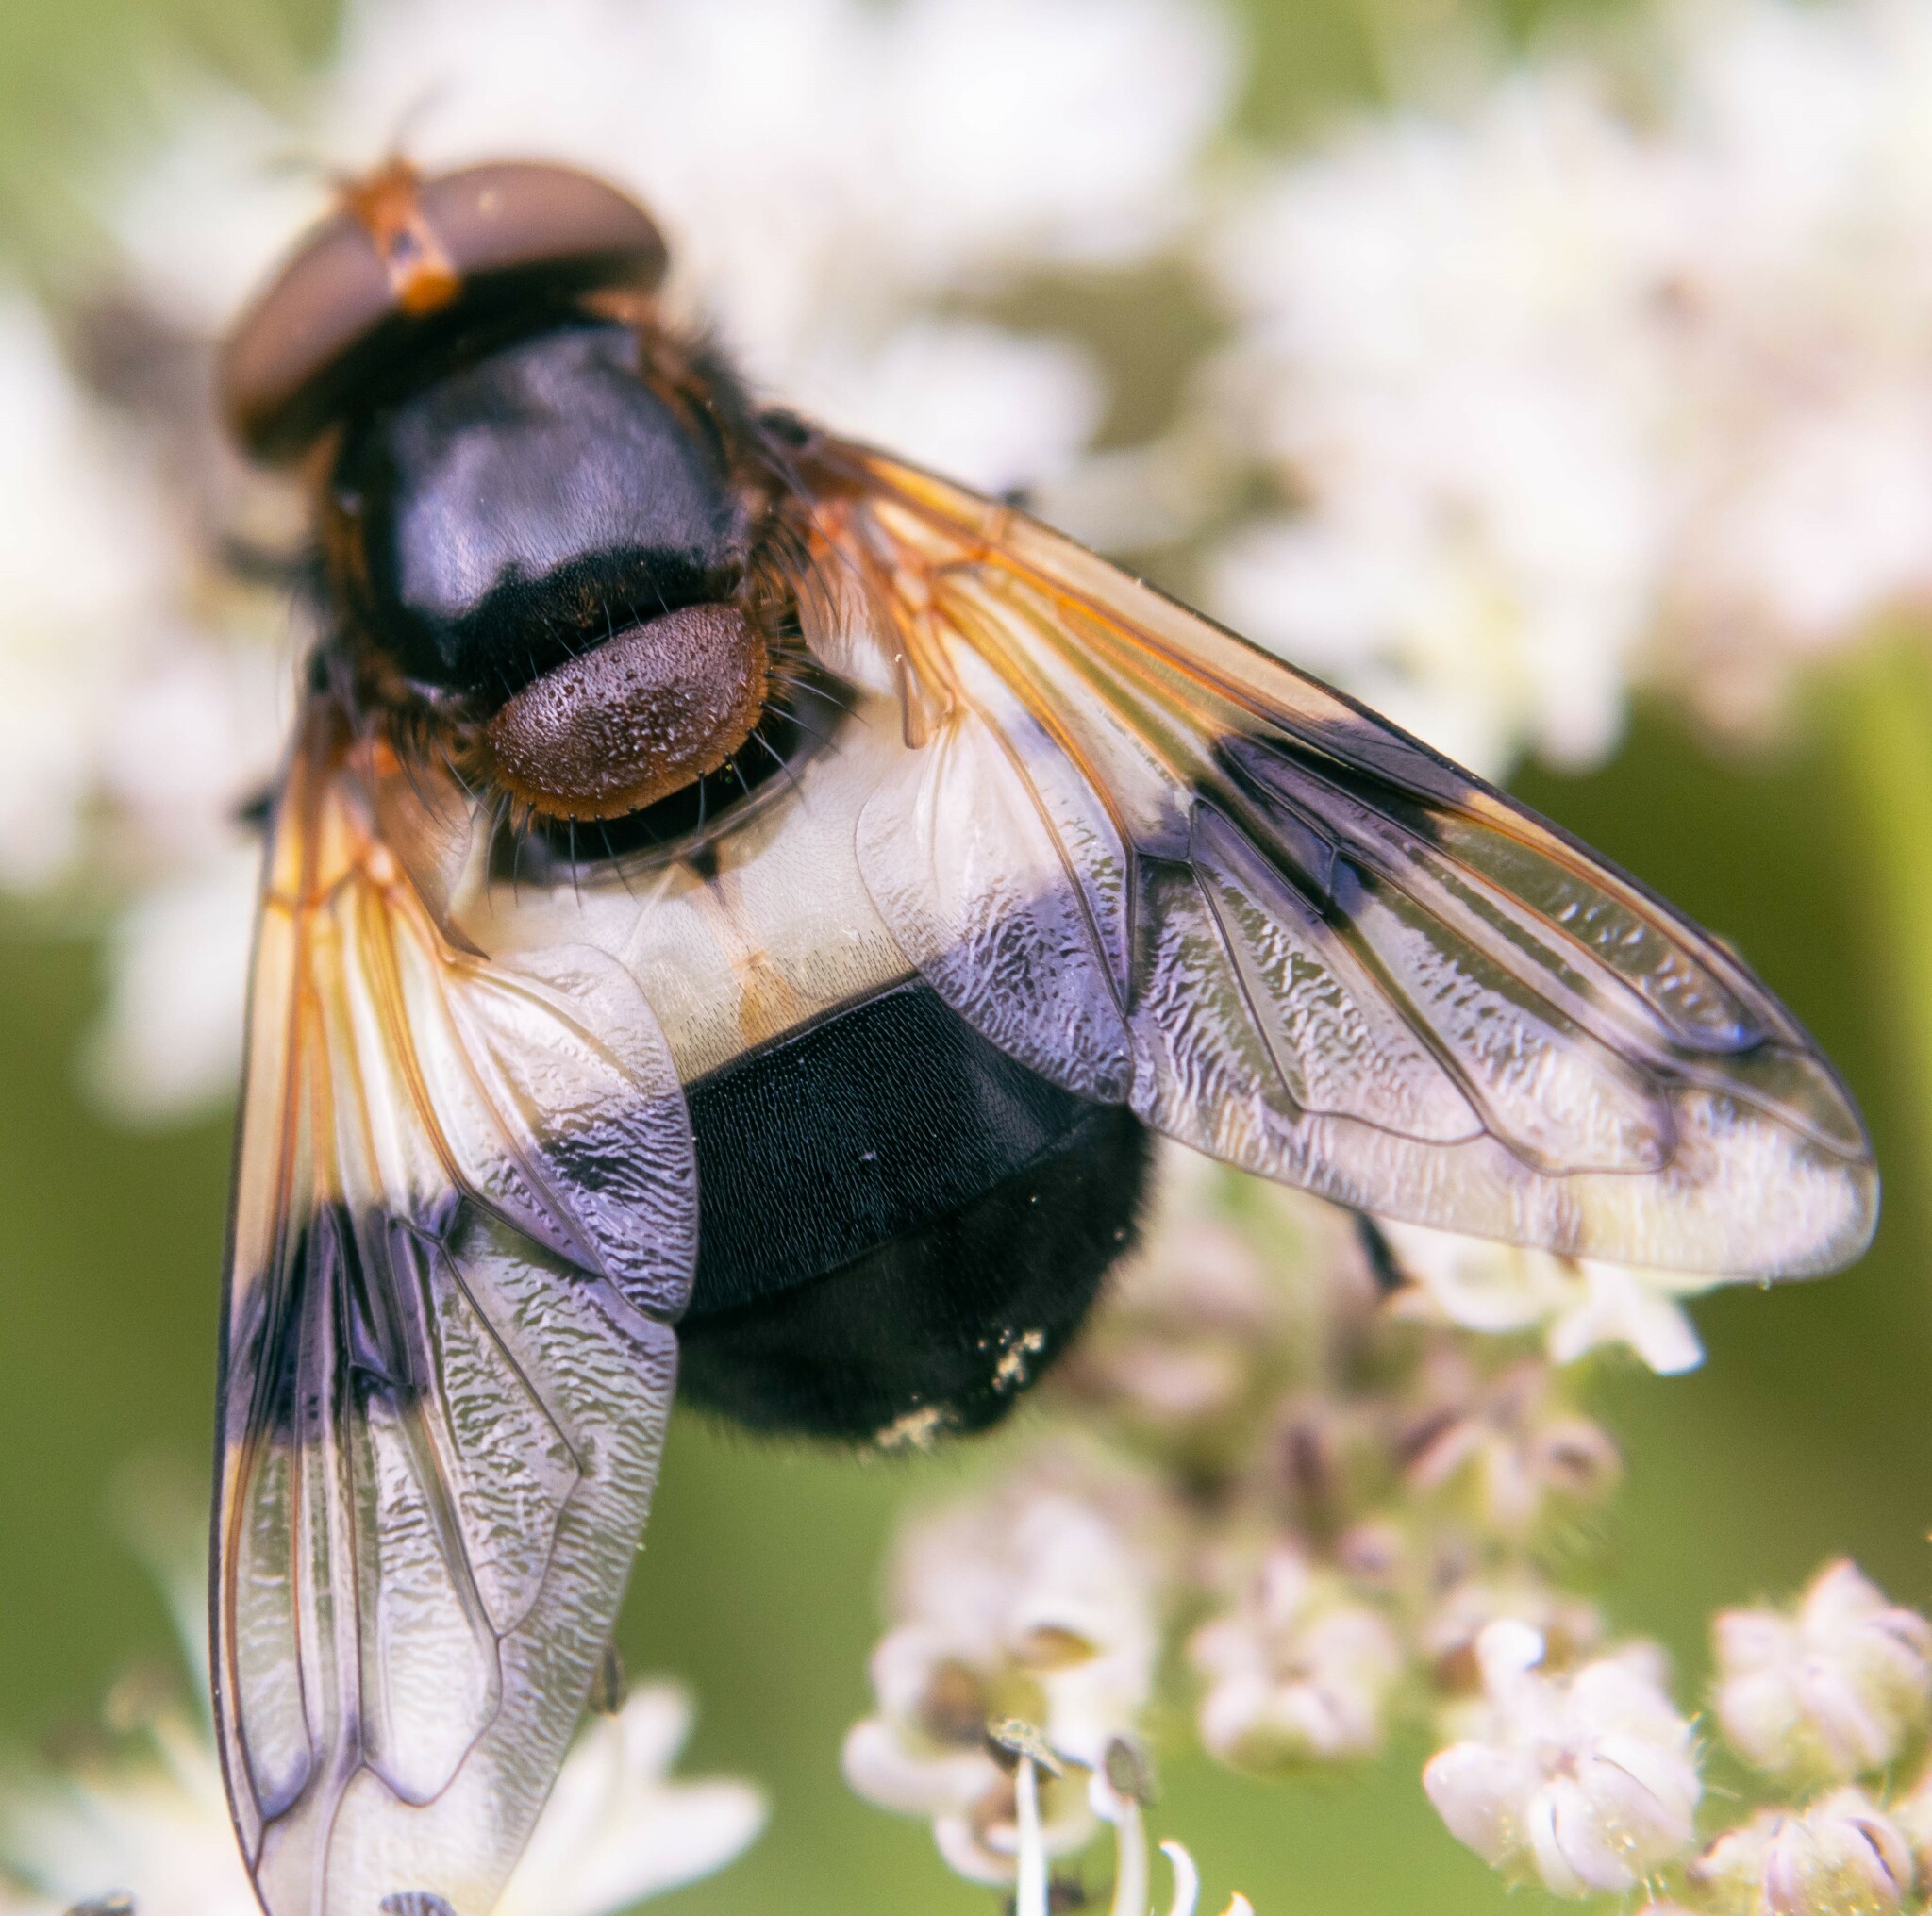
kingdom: Animalia
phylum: Arthropoda
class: Insecta
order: Diptera
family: Syrphidae
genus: Volucella
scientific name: Volucella pellucens
